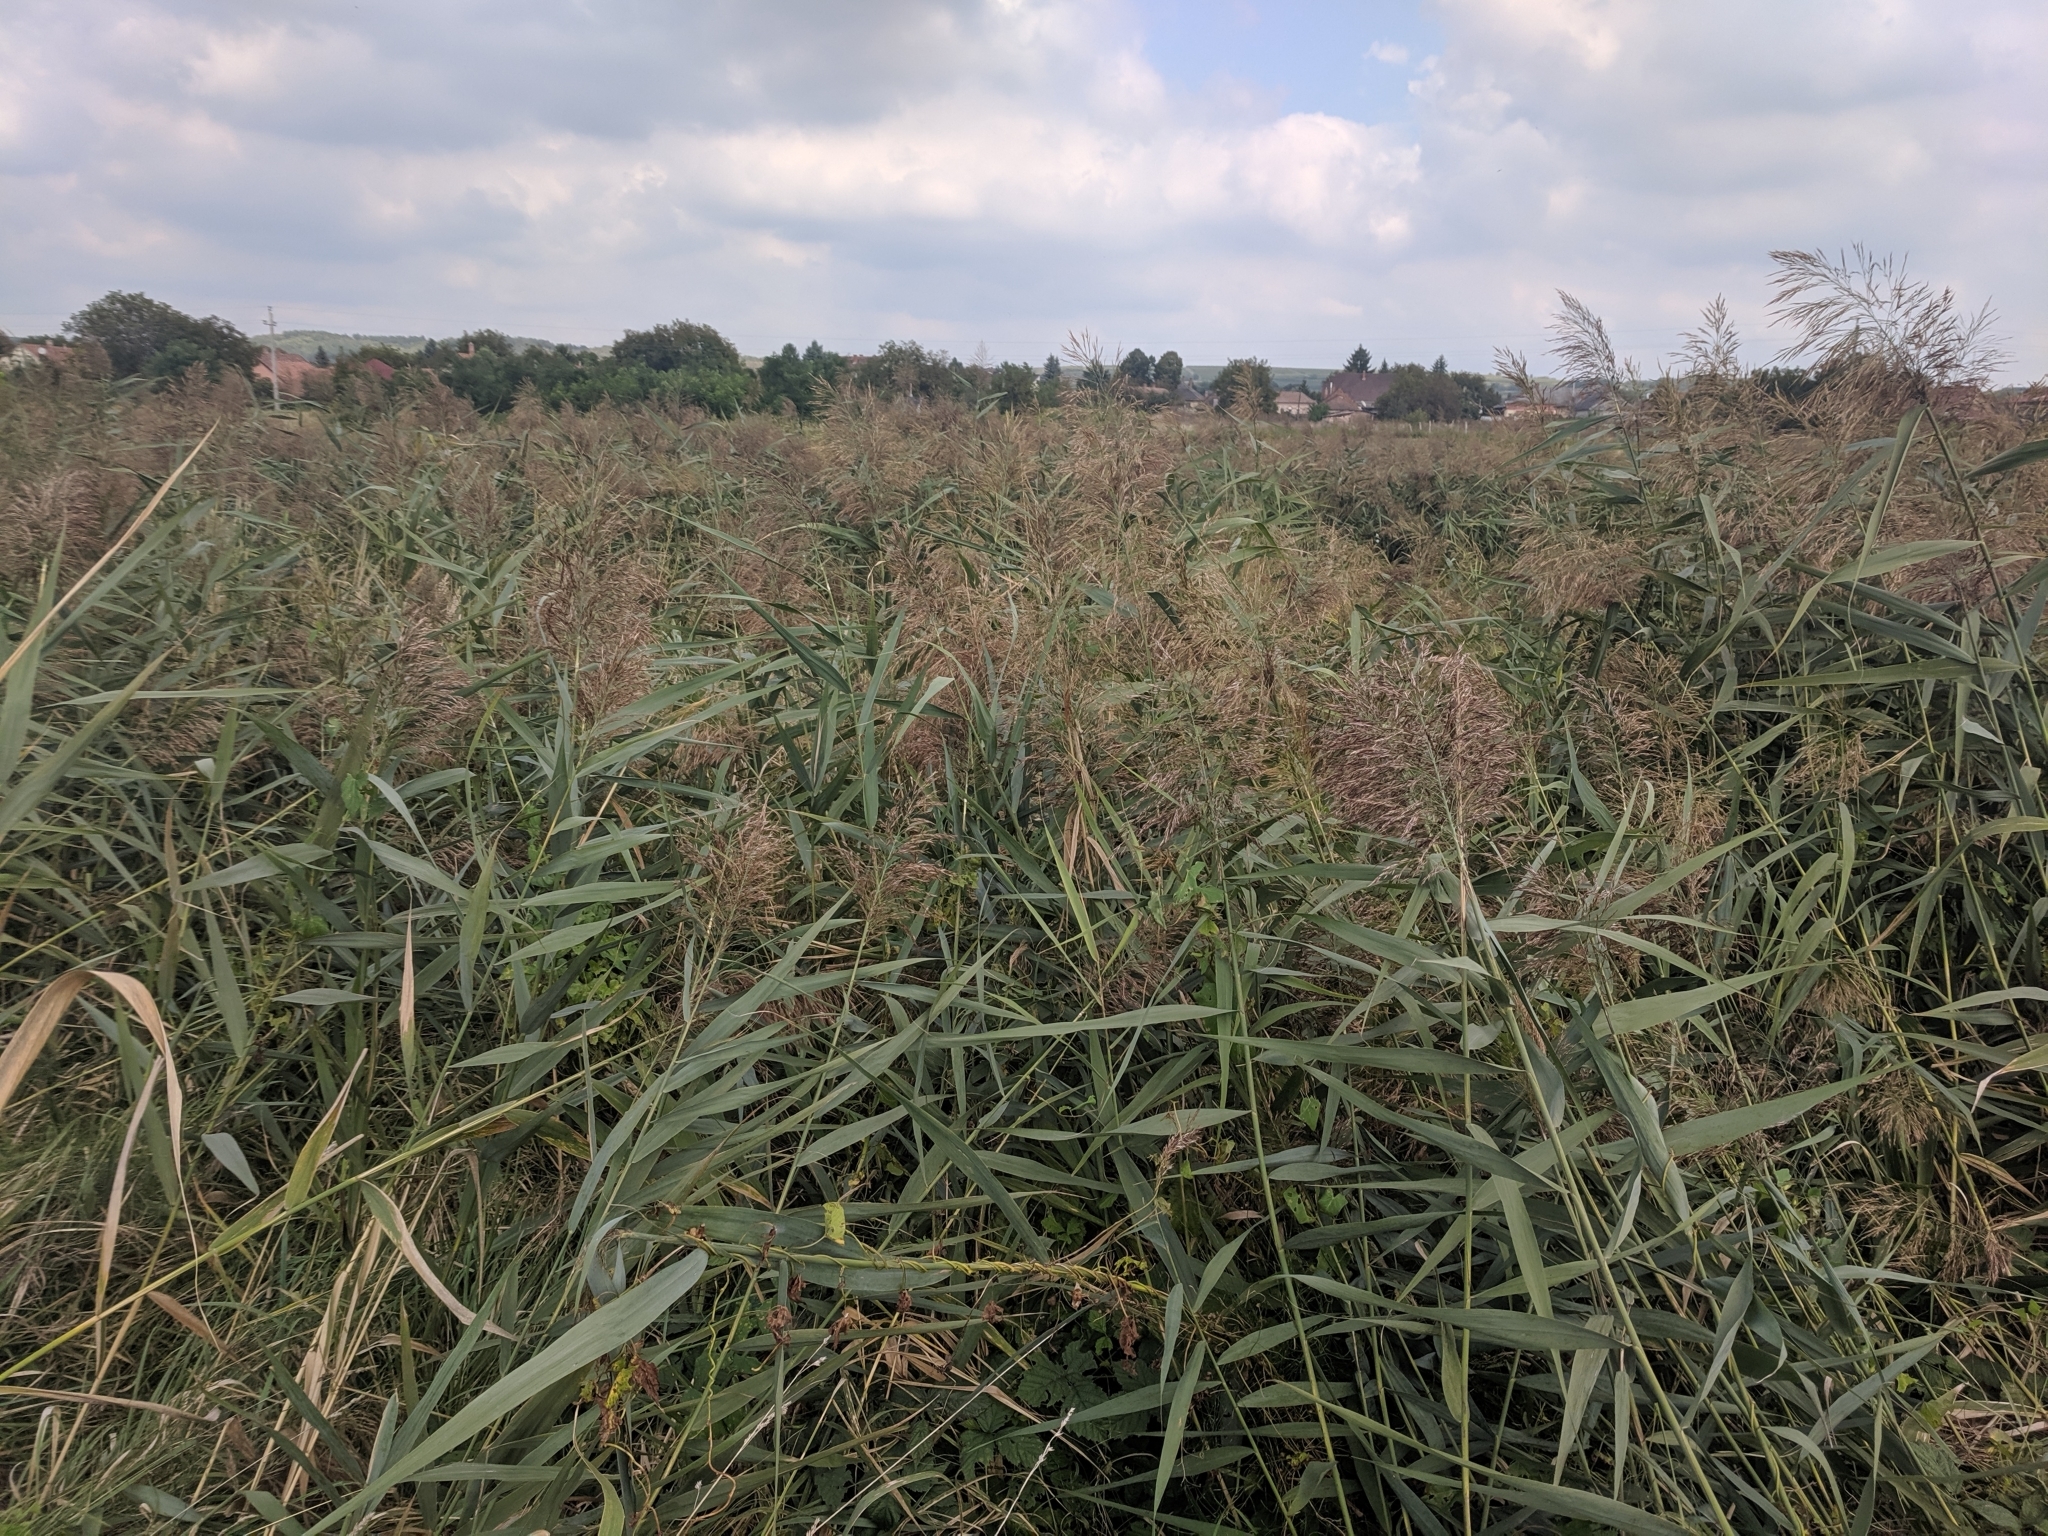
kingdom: Plantae
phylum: Tracheophyta
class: Liliopsida
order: Poales
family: Poaceae
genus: Phragmites
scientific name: Phragmites australis
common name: Common reed
